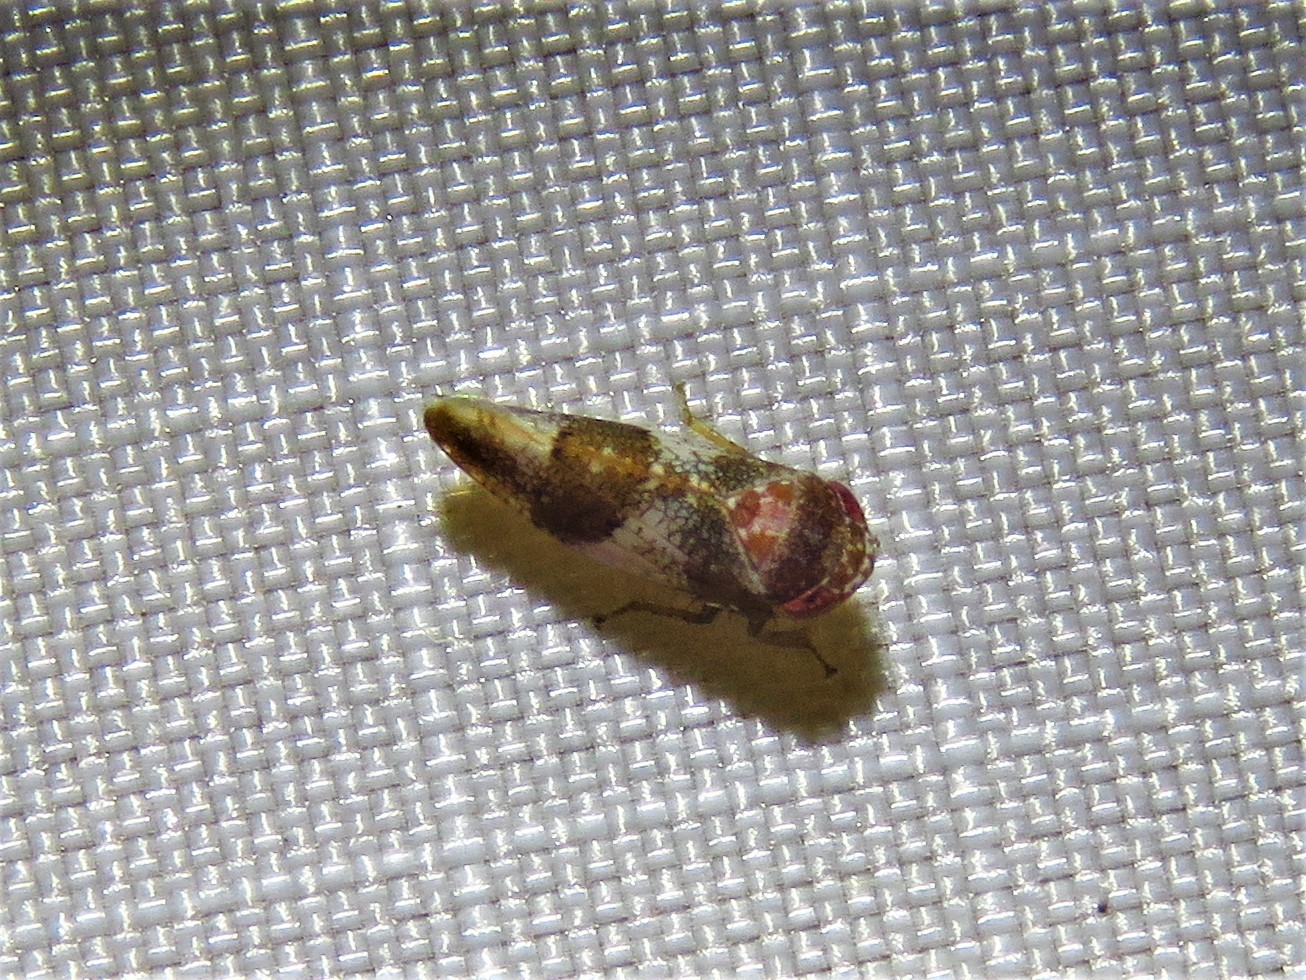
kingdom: Animalia
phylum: Arthropoda
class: Insecta
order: Hemiptera
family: Cicadellidae
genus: Norvellina
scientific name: Norvellina helenae
